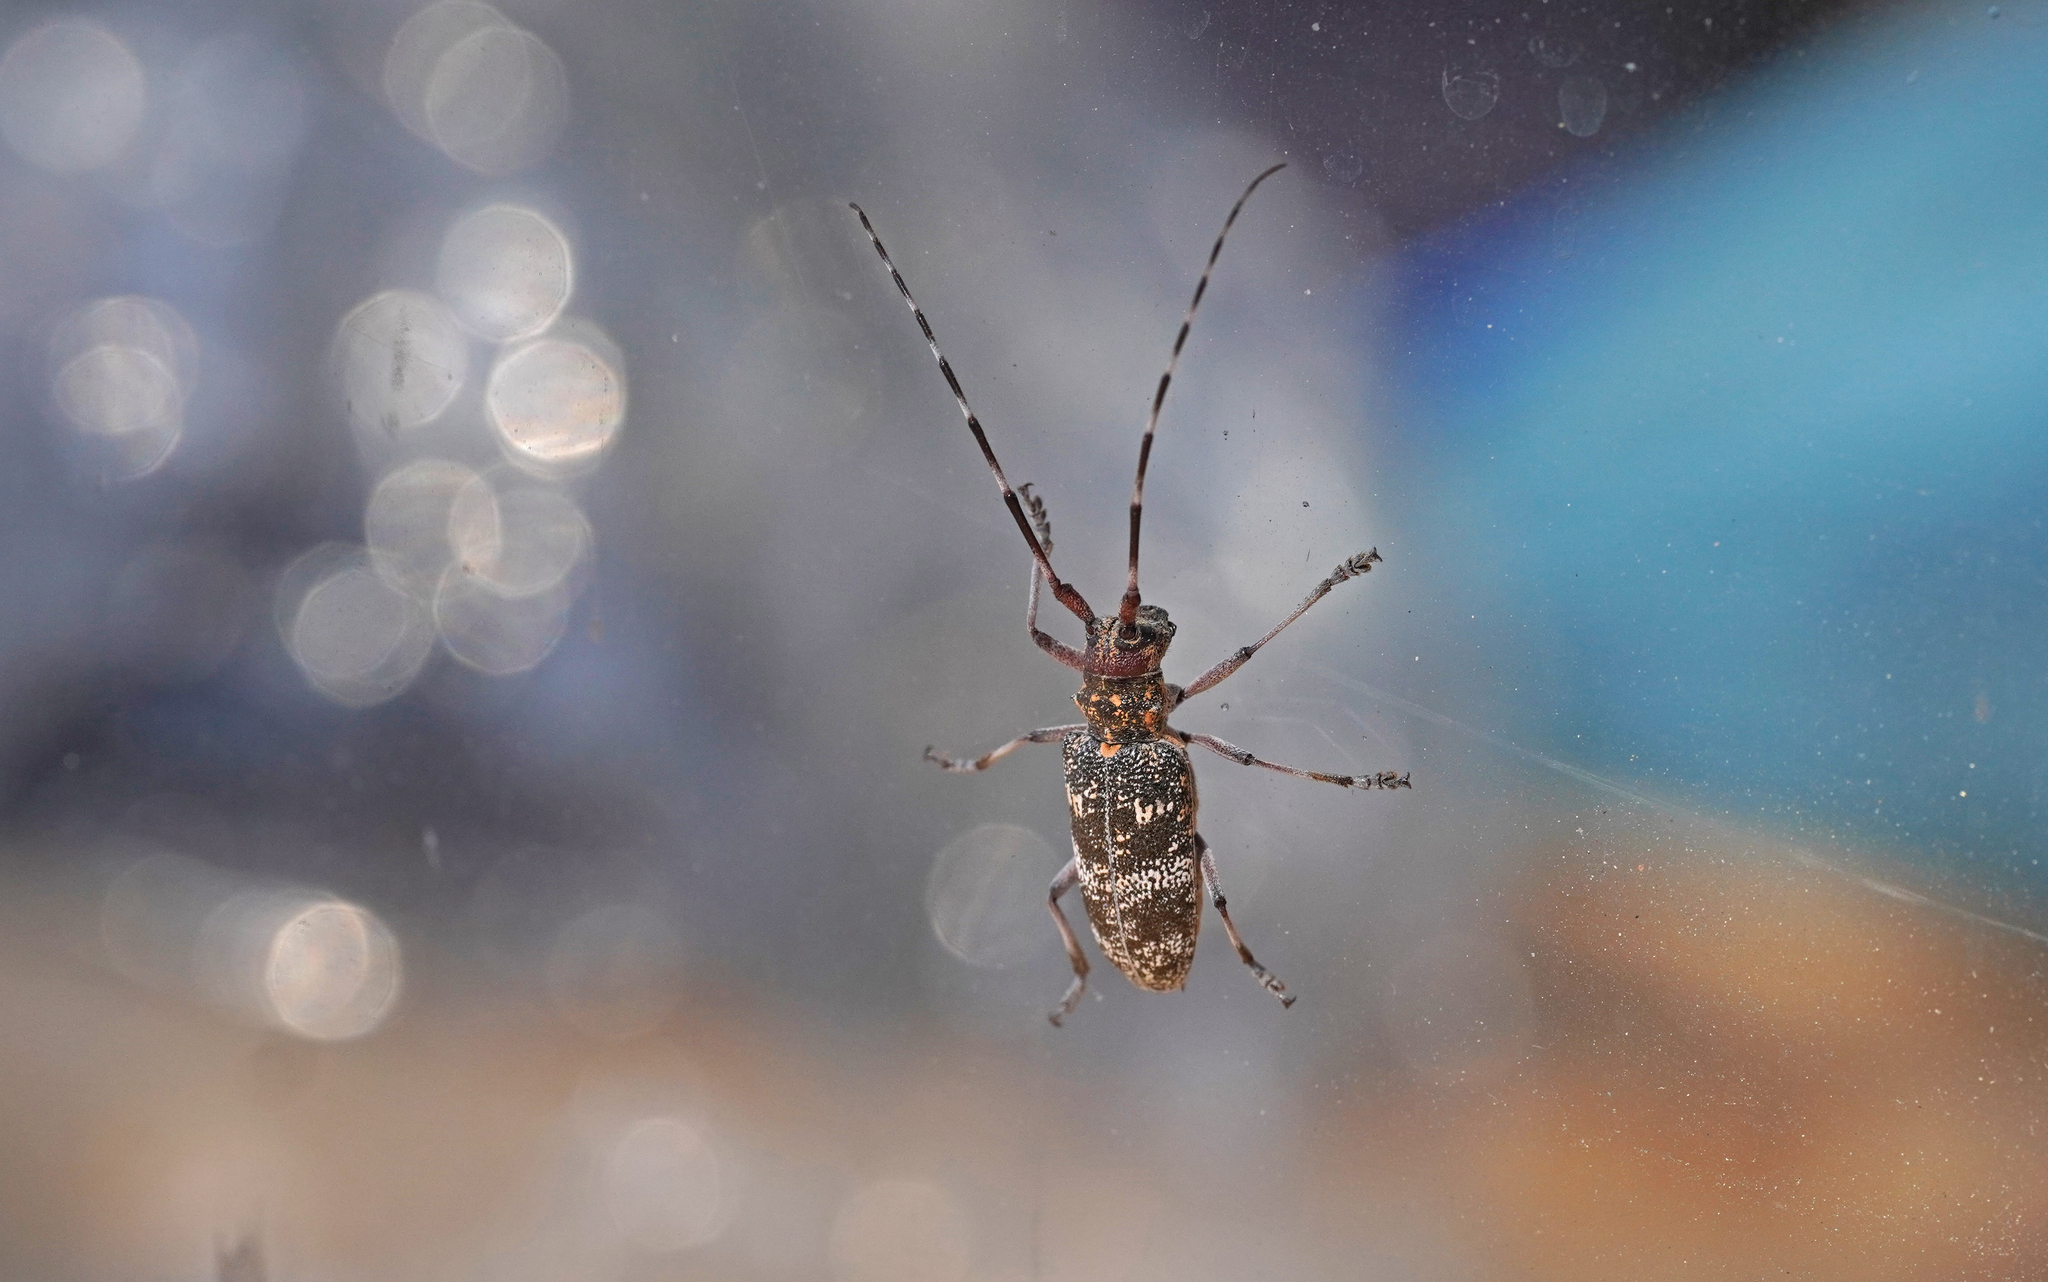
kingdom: Animalia
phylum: Arthropoda
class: Insecta
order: Coleoptera
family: Cerambycidae
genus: Monochamus
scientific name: Monochamus galloprovincialis
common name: Pine sawyer
